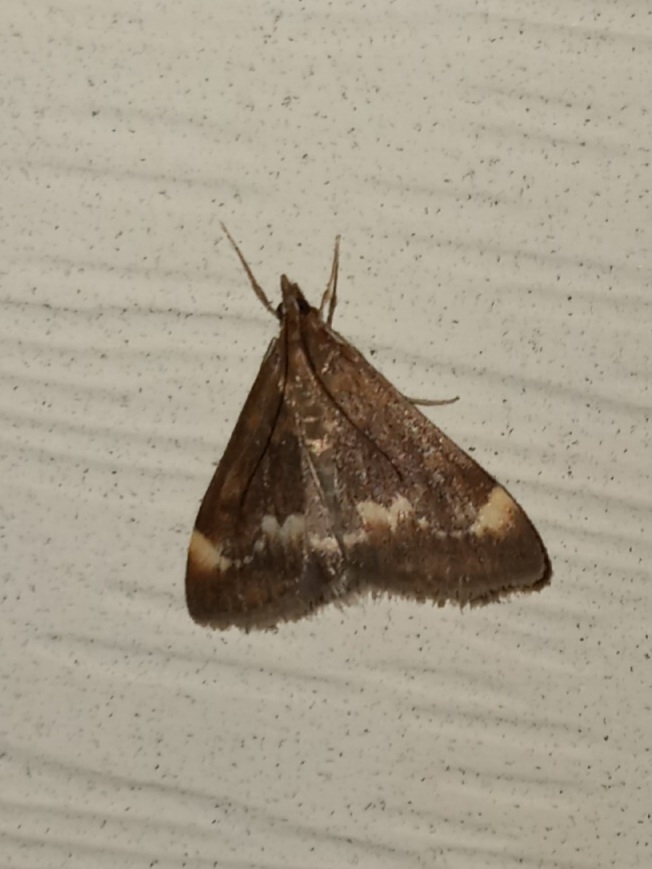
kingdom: Animalia
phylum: Arthropoda
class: Insecta
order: Lepidoptera
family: Crambidae
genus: Pyrausta
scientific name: Pyrausta nicalis
